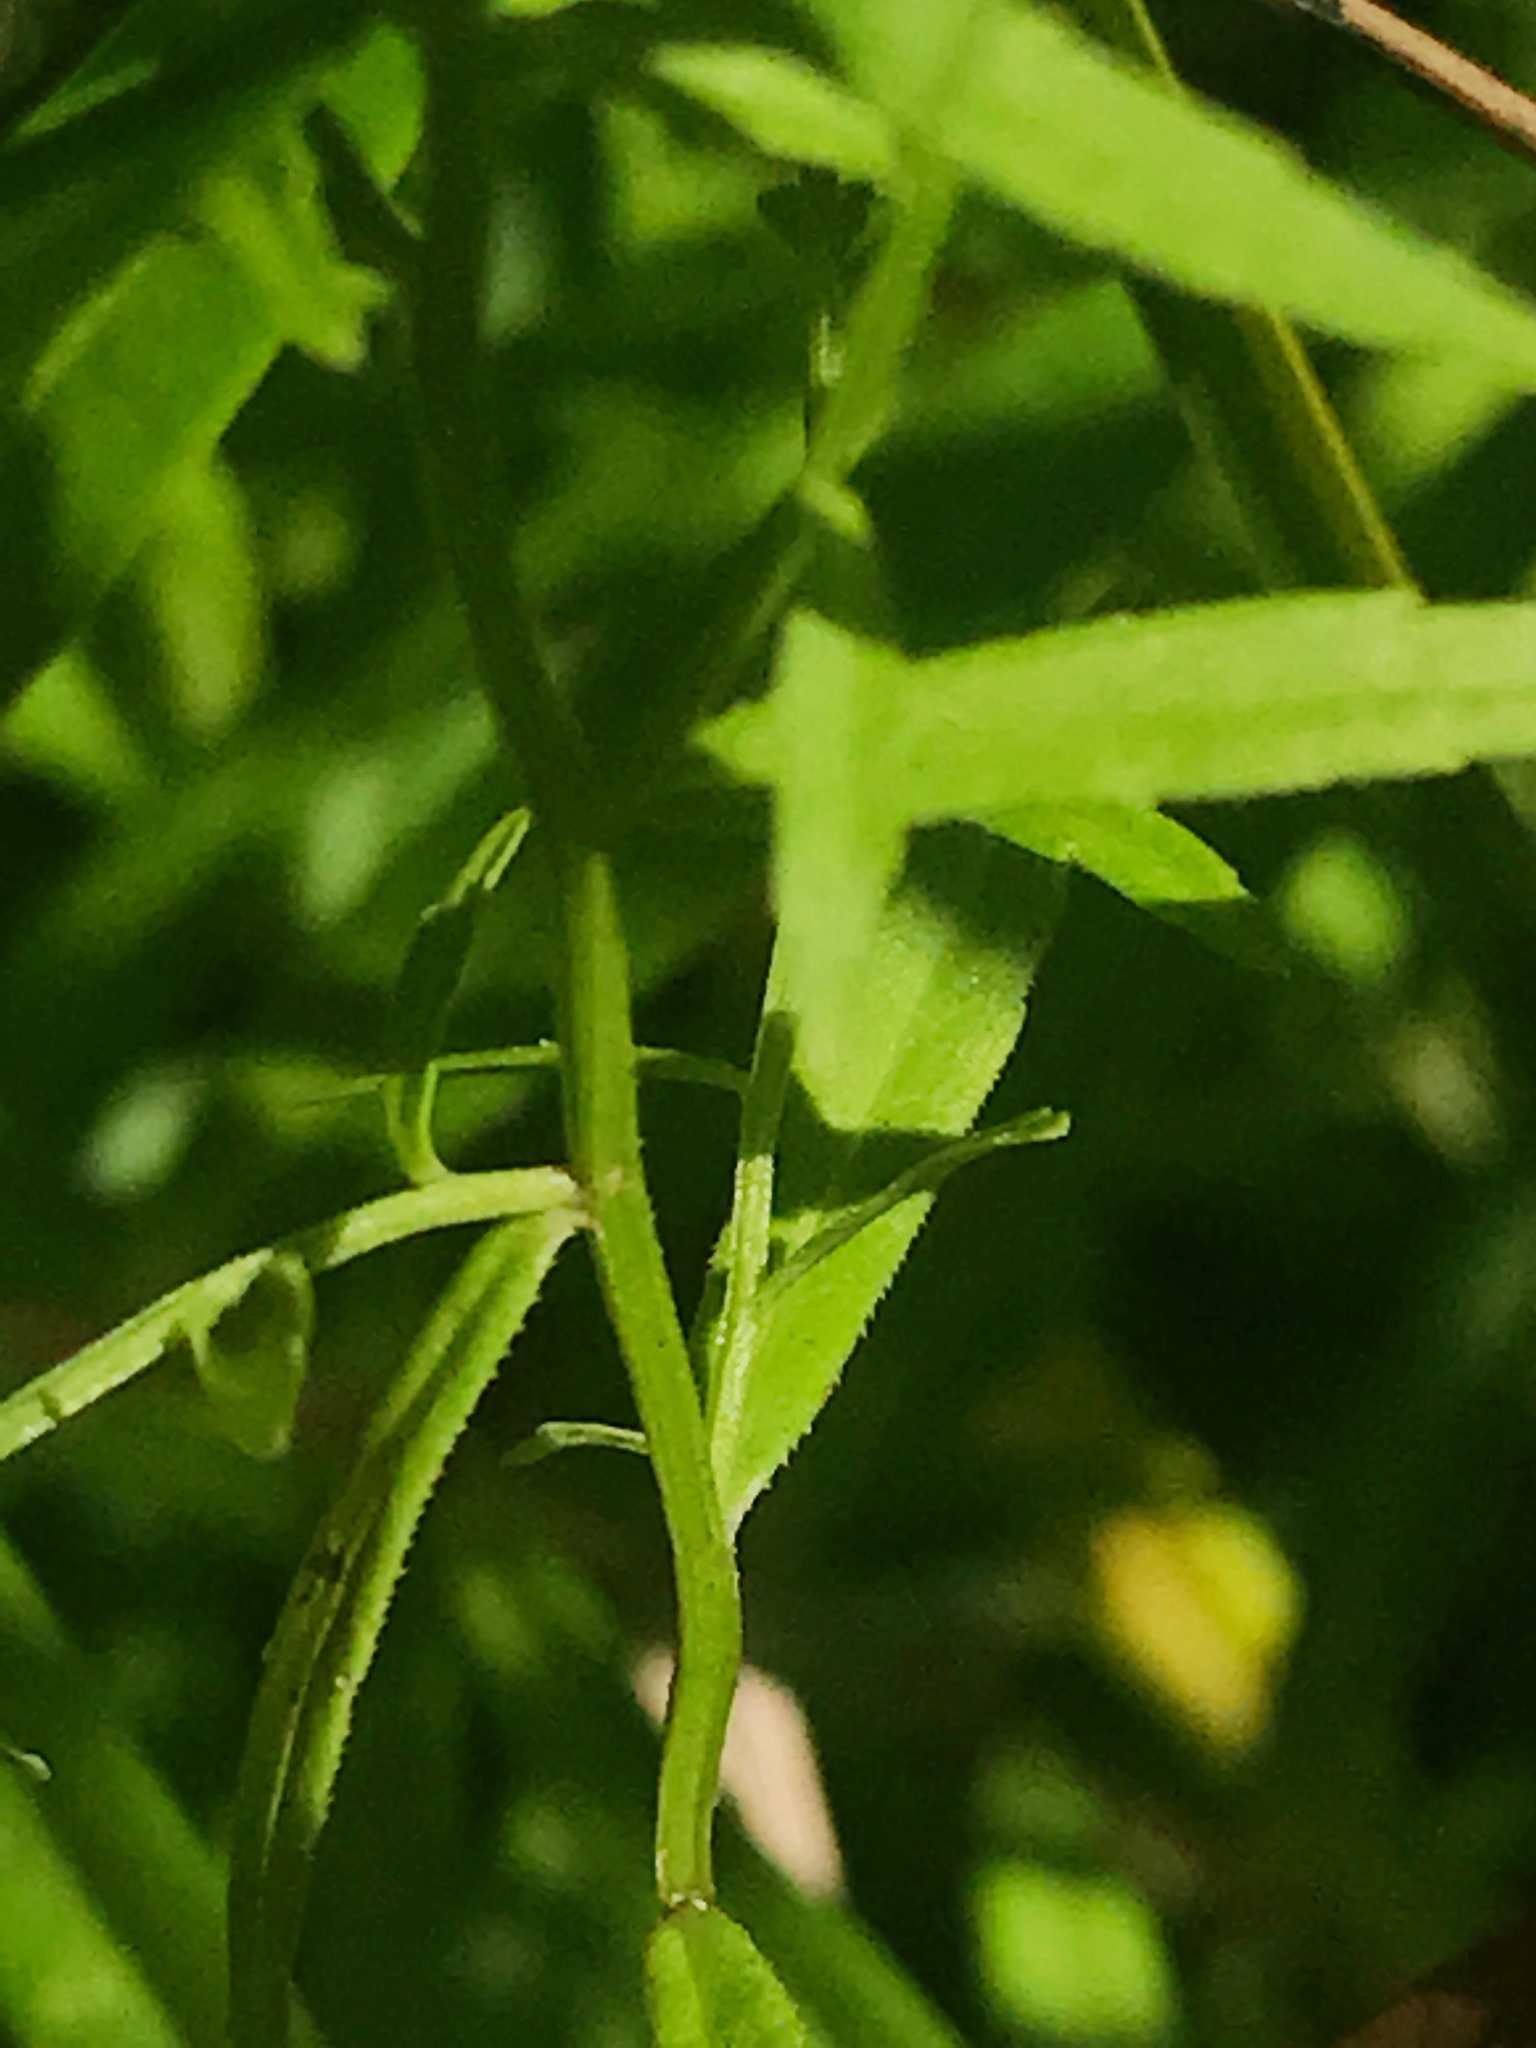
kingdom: Plantae
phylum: Tracheophyta
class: Magnoliopsida
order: Asterales
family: Campanulaceae
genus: Palustricodon
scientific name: Palustricodon aparinoides
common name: Bedstraw bellflower
